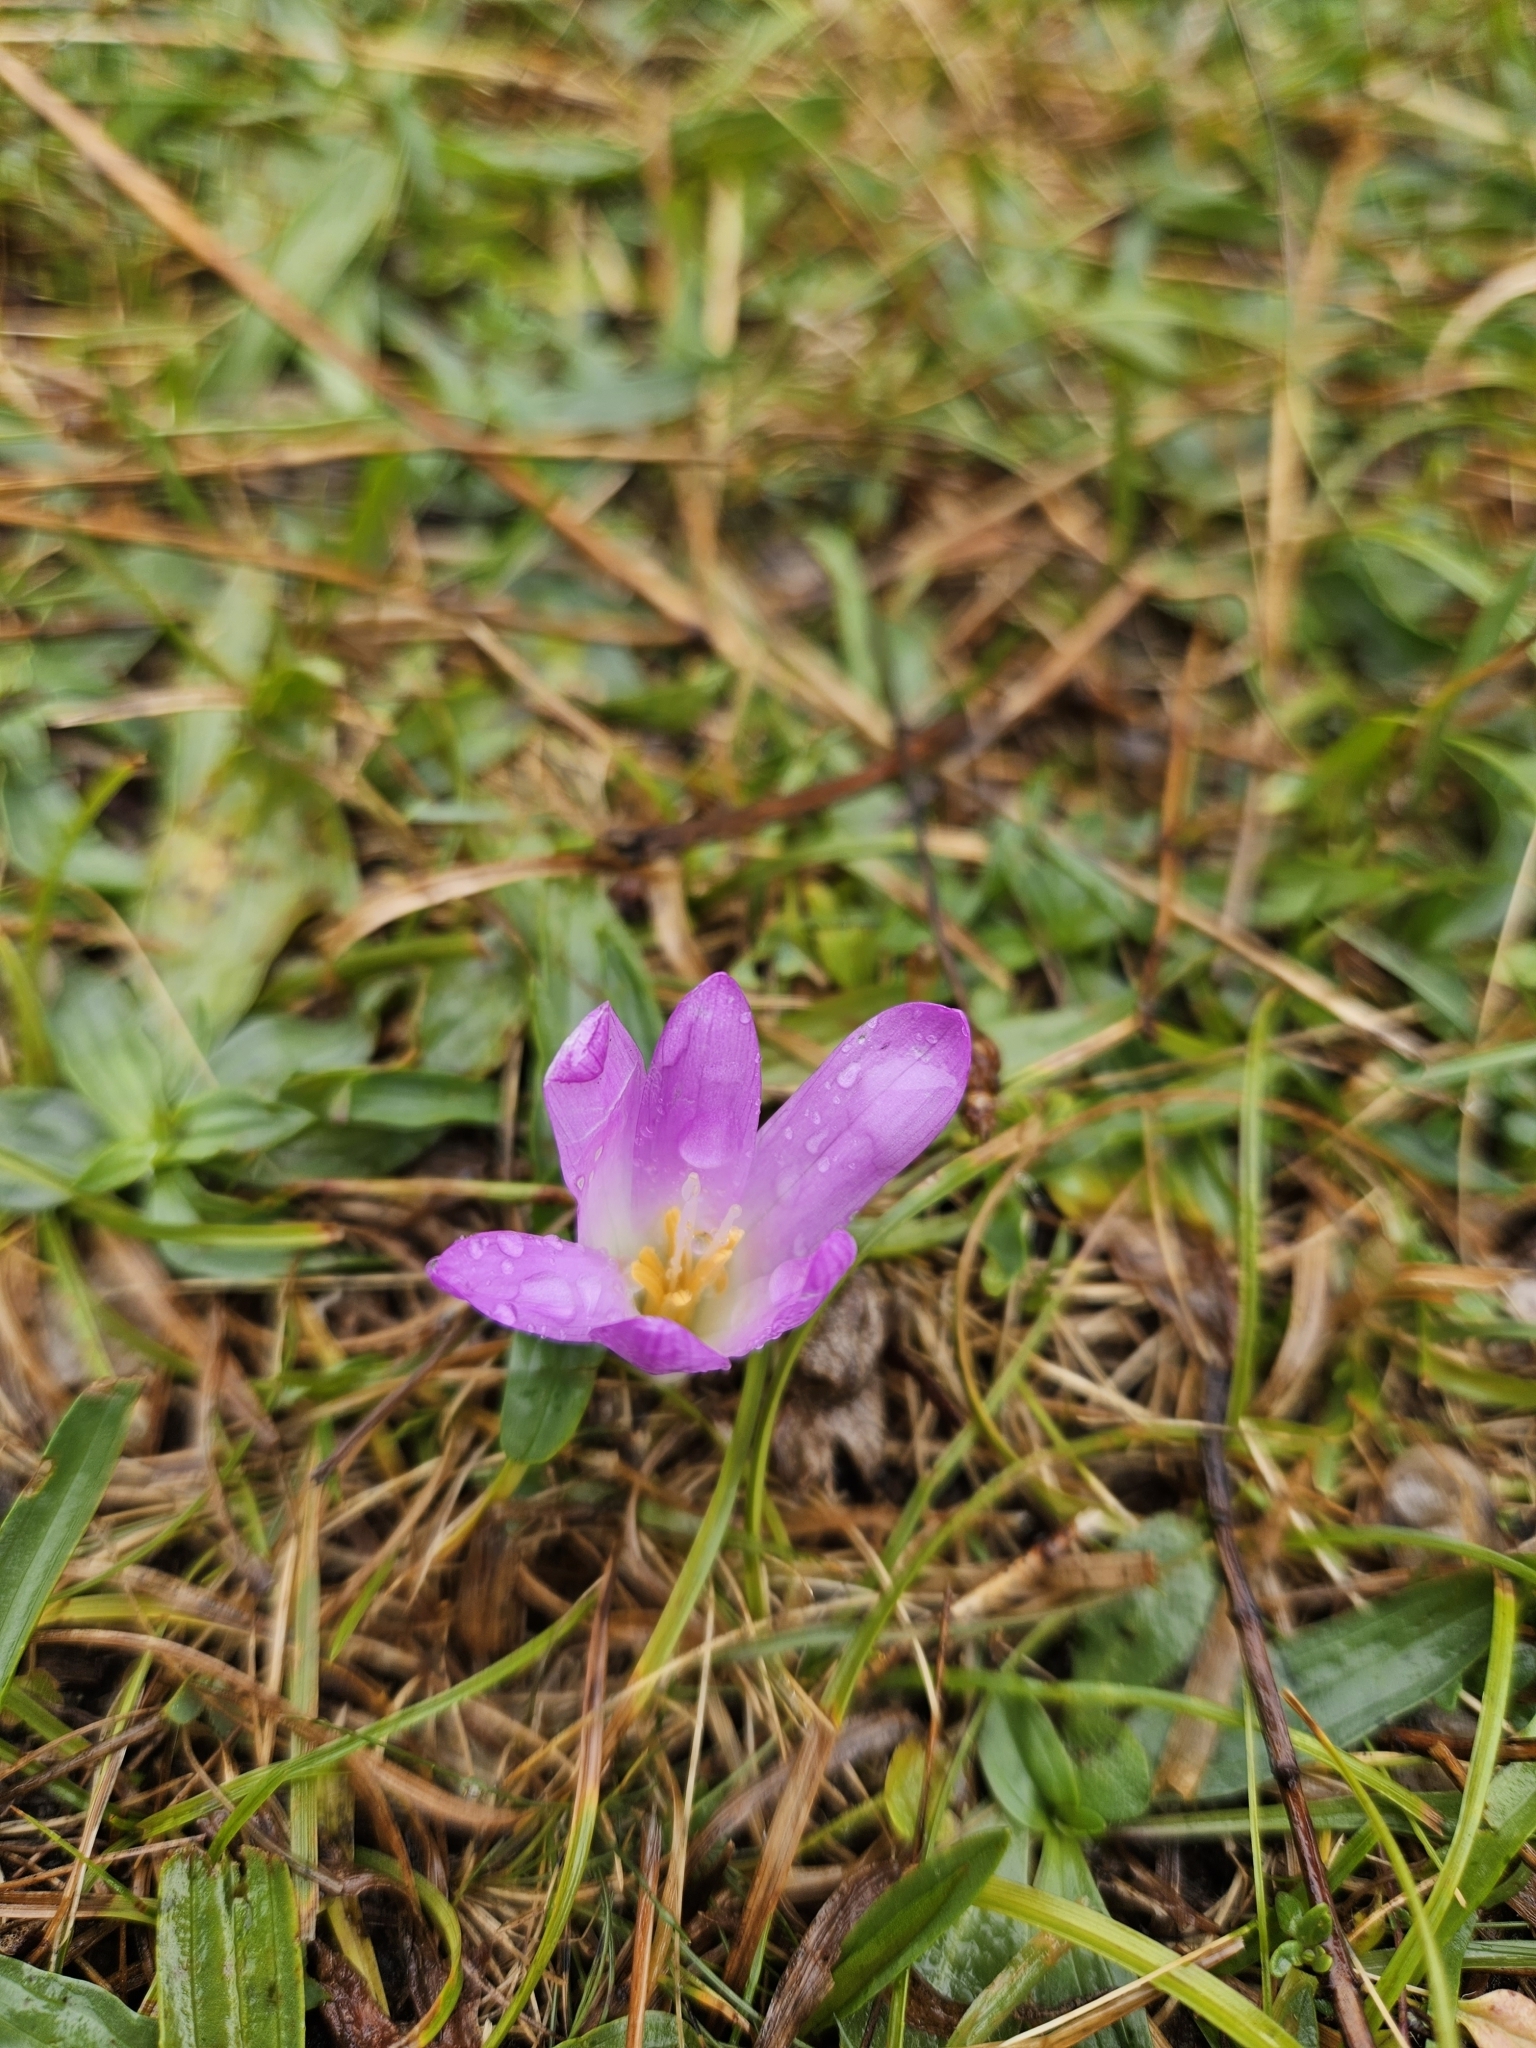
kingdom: Plantae
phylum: Tracheophyta
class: Liliopsida
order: Liliales
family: Colchicaceae
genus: Colchicum
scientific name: Colchicum montanum
